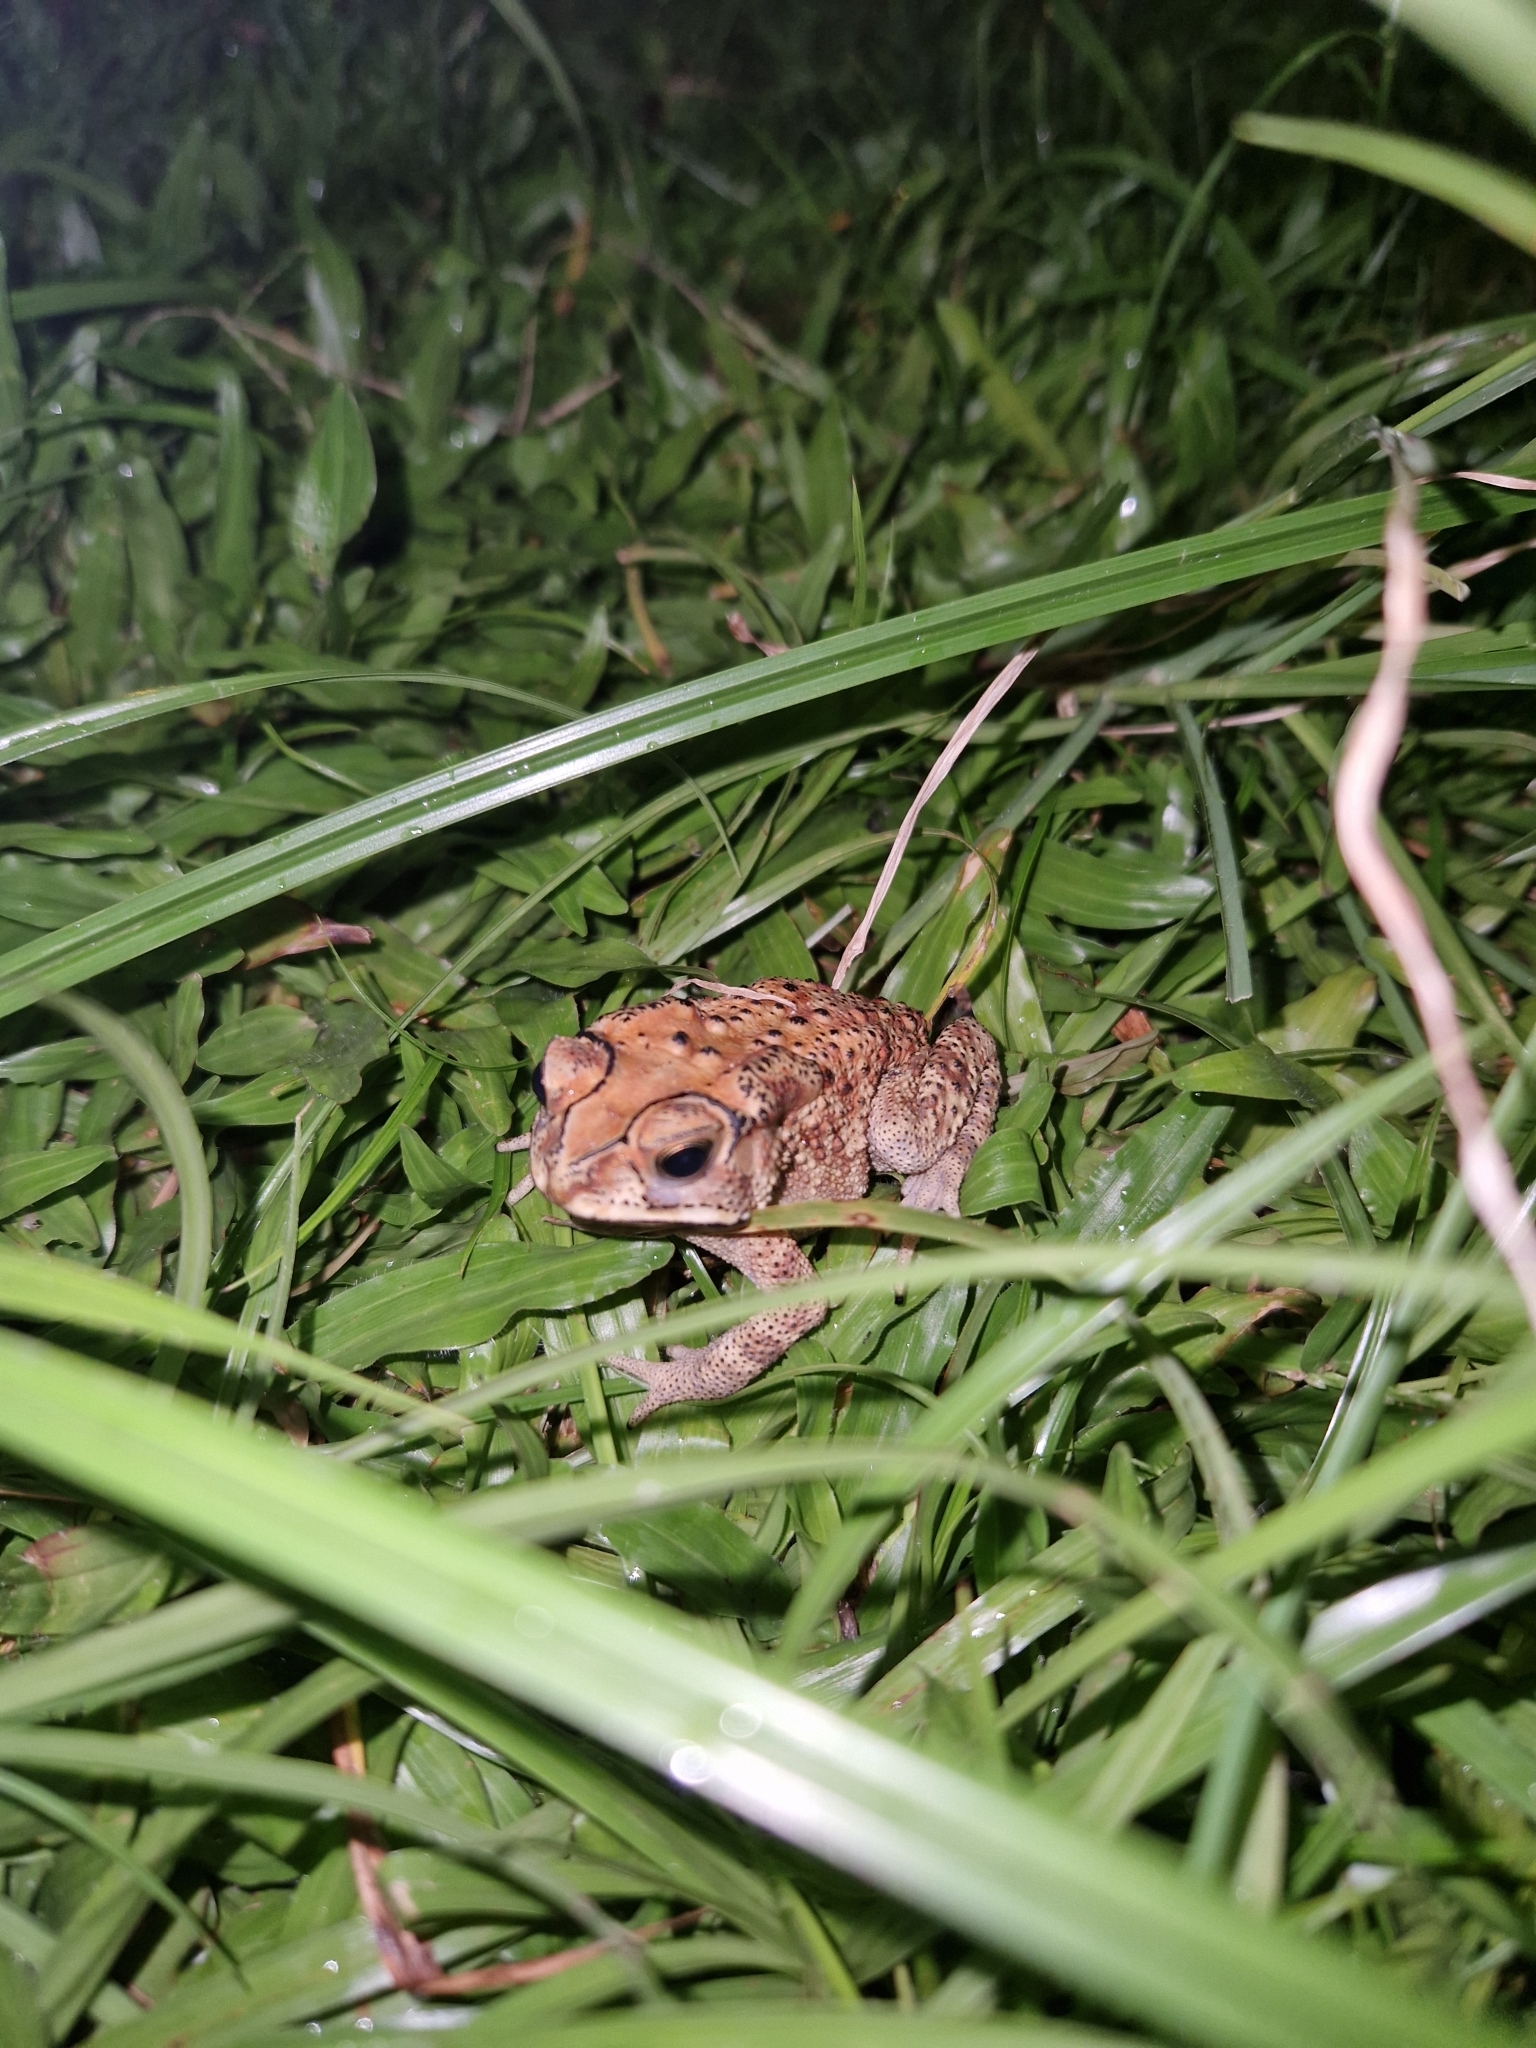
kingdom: Animalia
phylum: Chordata
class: Amphibia
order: Anura
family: Bufonidae
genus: Duttaphrynus
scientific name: Duttaphrynus melanostictus
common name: Common sunda toad
